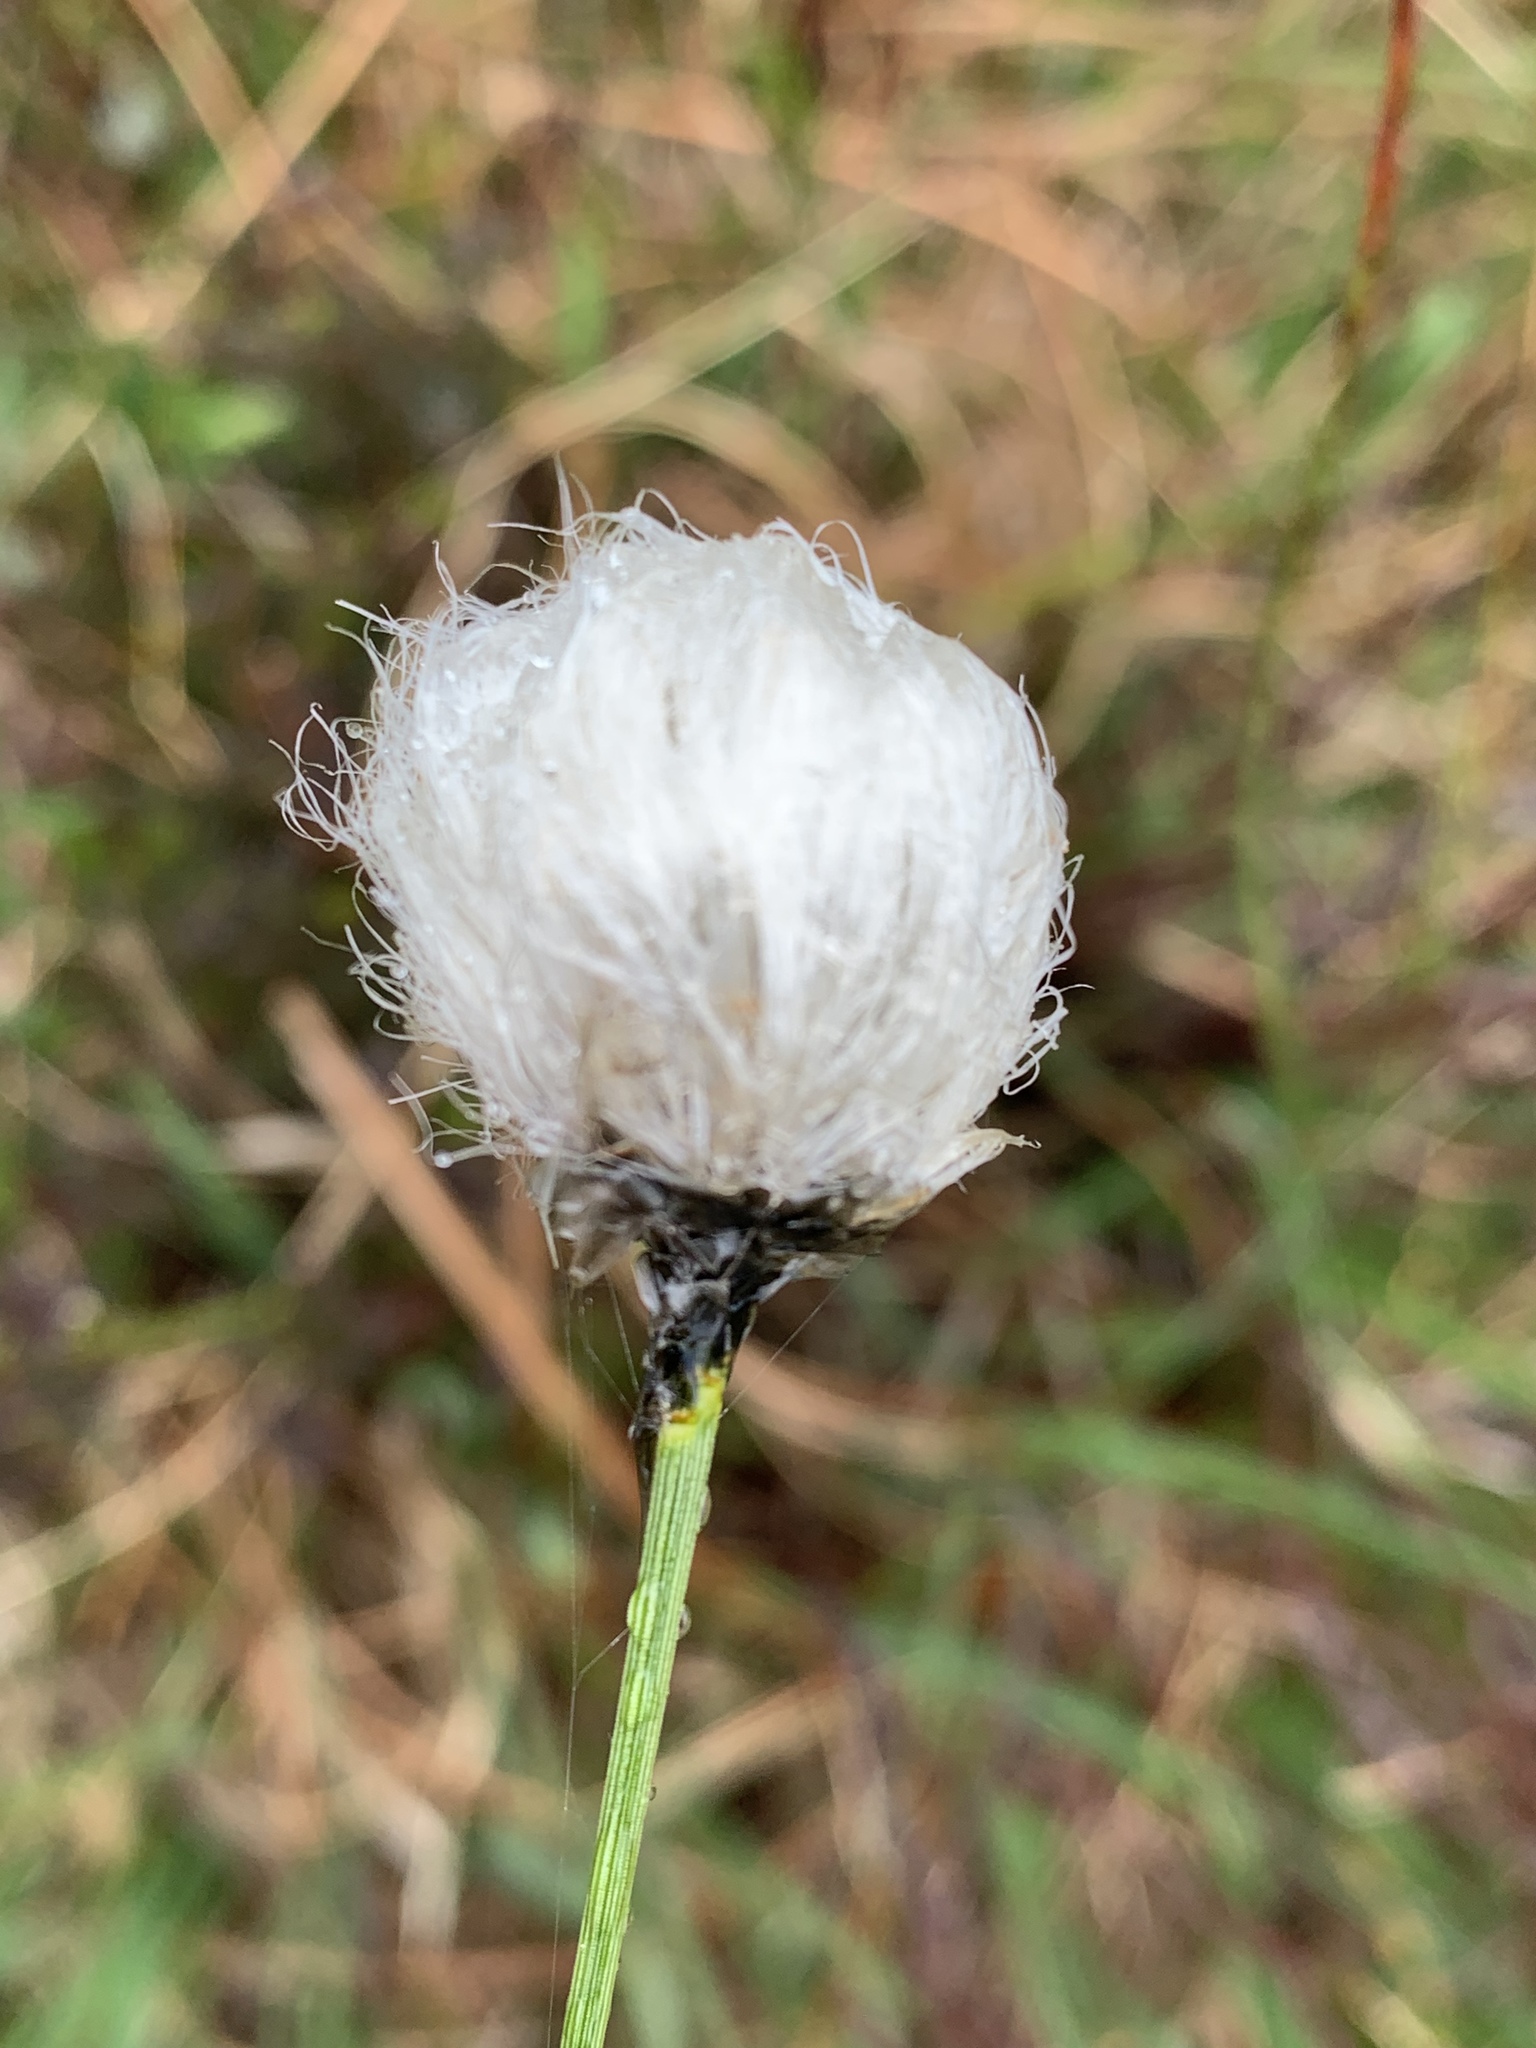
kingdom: Plantae
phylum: Tracheophyta
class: Liliopsida
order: Poales
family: Cyperaceae
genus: Eriophorum
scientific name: Eriophorum vaginatum
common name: Hare's-tail cottongrass
